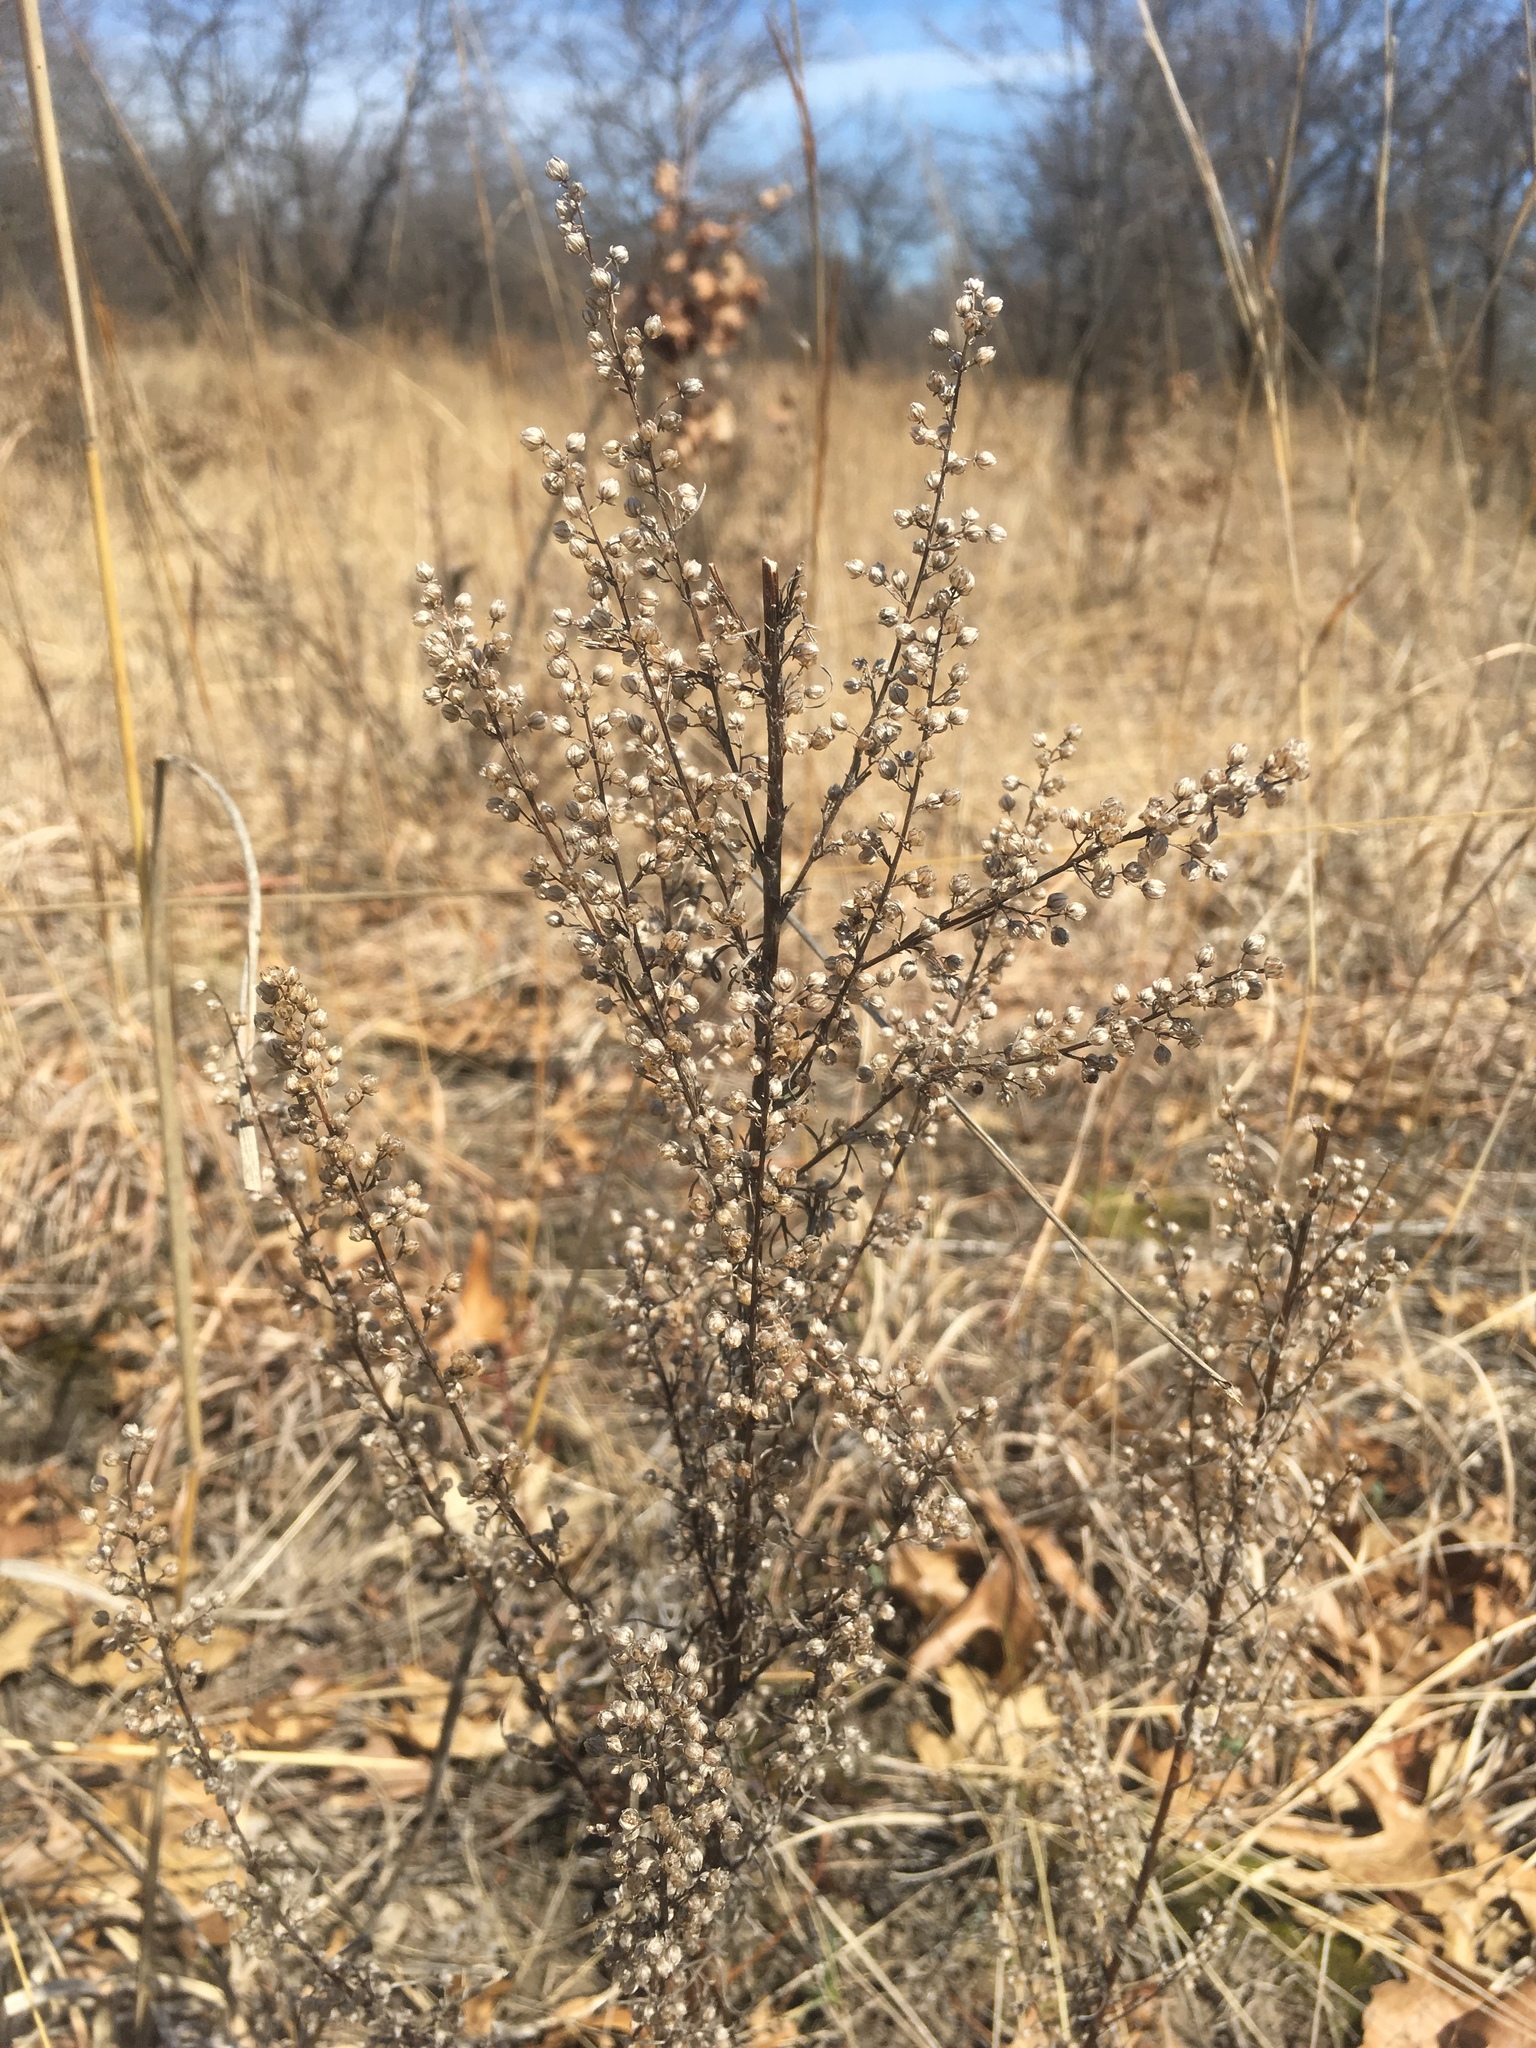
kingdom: Plantae
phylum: Tracheophyta
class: Magnoliopsida
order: Asterales
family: Asteraceae
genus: Artemisia
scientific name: Artemisia campestris
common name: Field wormwood
